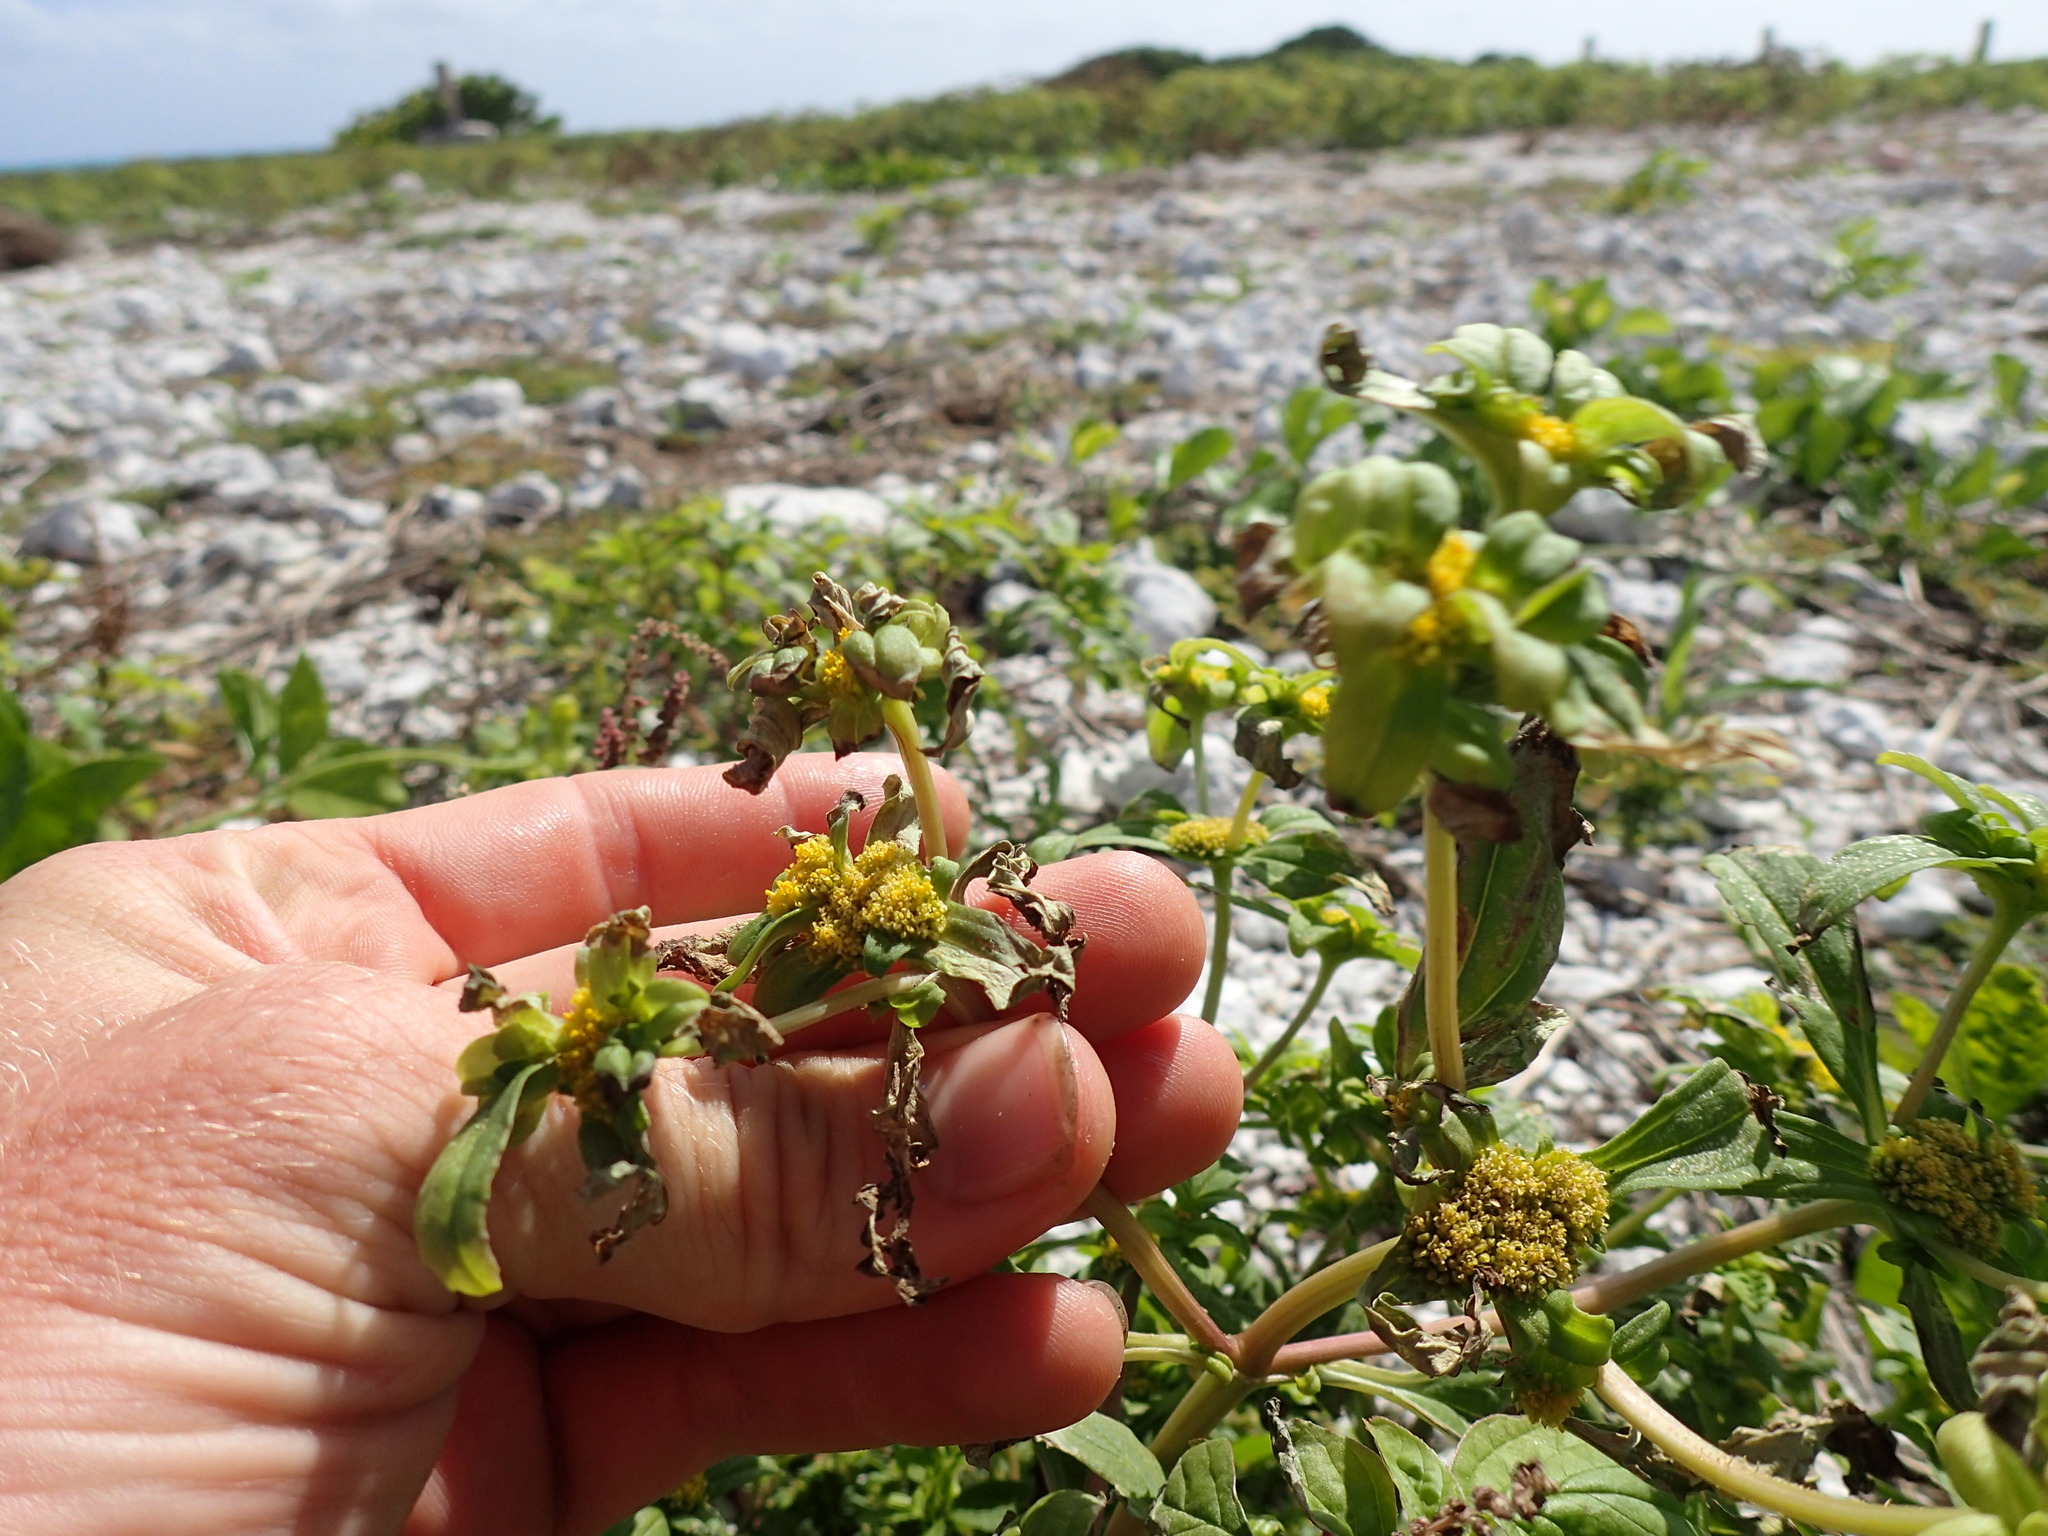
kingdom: Plantae
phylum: Tracheophyta
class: Magnoliopsida
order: Asterales
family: Asteraceae
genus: Flaveria
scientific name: Flaveria trinervia
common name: Clustered yellowtops
